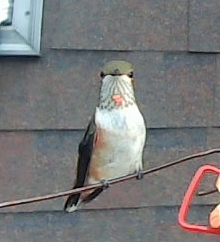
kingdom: Animalia
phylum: Chordata
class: Aves
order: Apodiformes
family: Trochilidae
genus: Selasphorus
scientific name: Selasphorus rufus
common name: Rufous hummingbird
